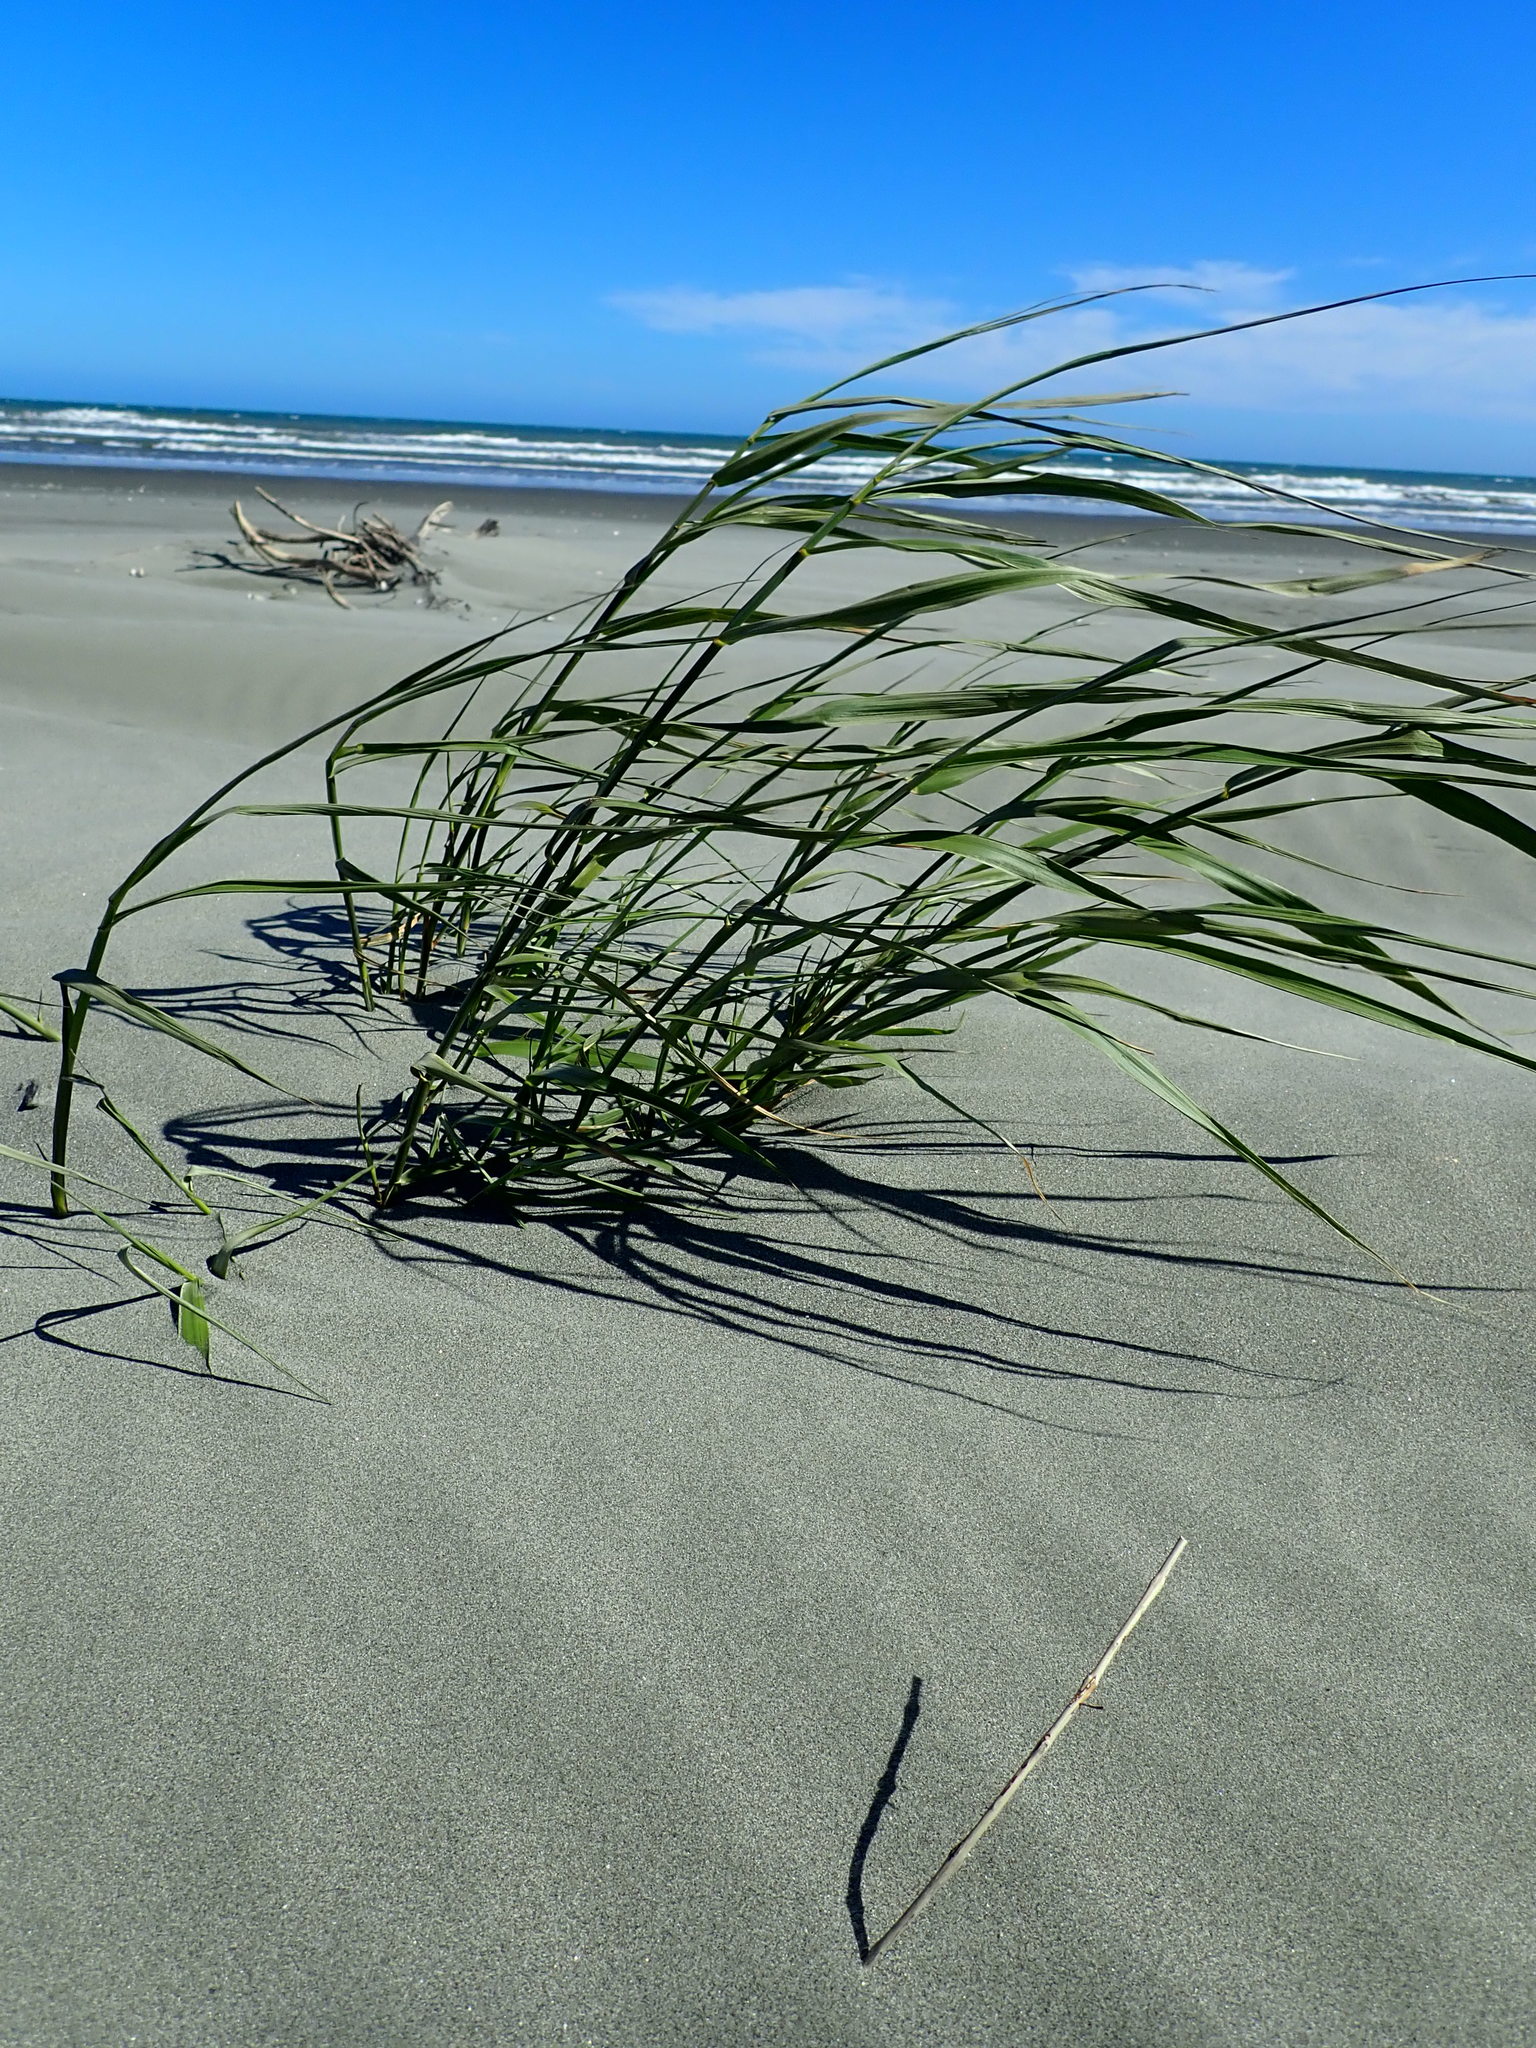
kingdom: Plantae
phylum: Tracheophyta
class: Liliopsida
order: Poales
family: Poaceae
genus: Phragmites
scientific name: Phragmites karka
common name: Tropical reed
